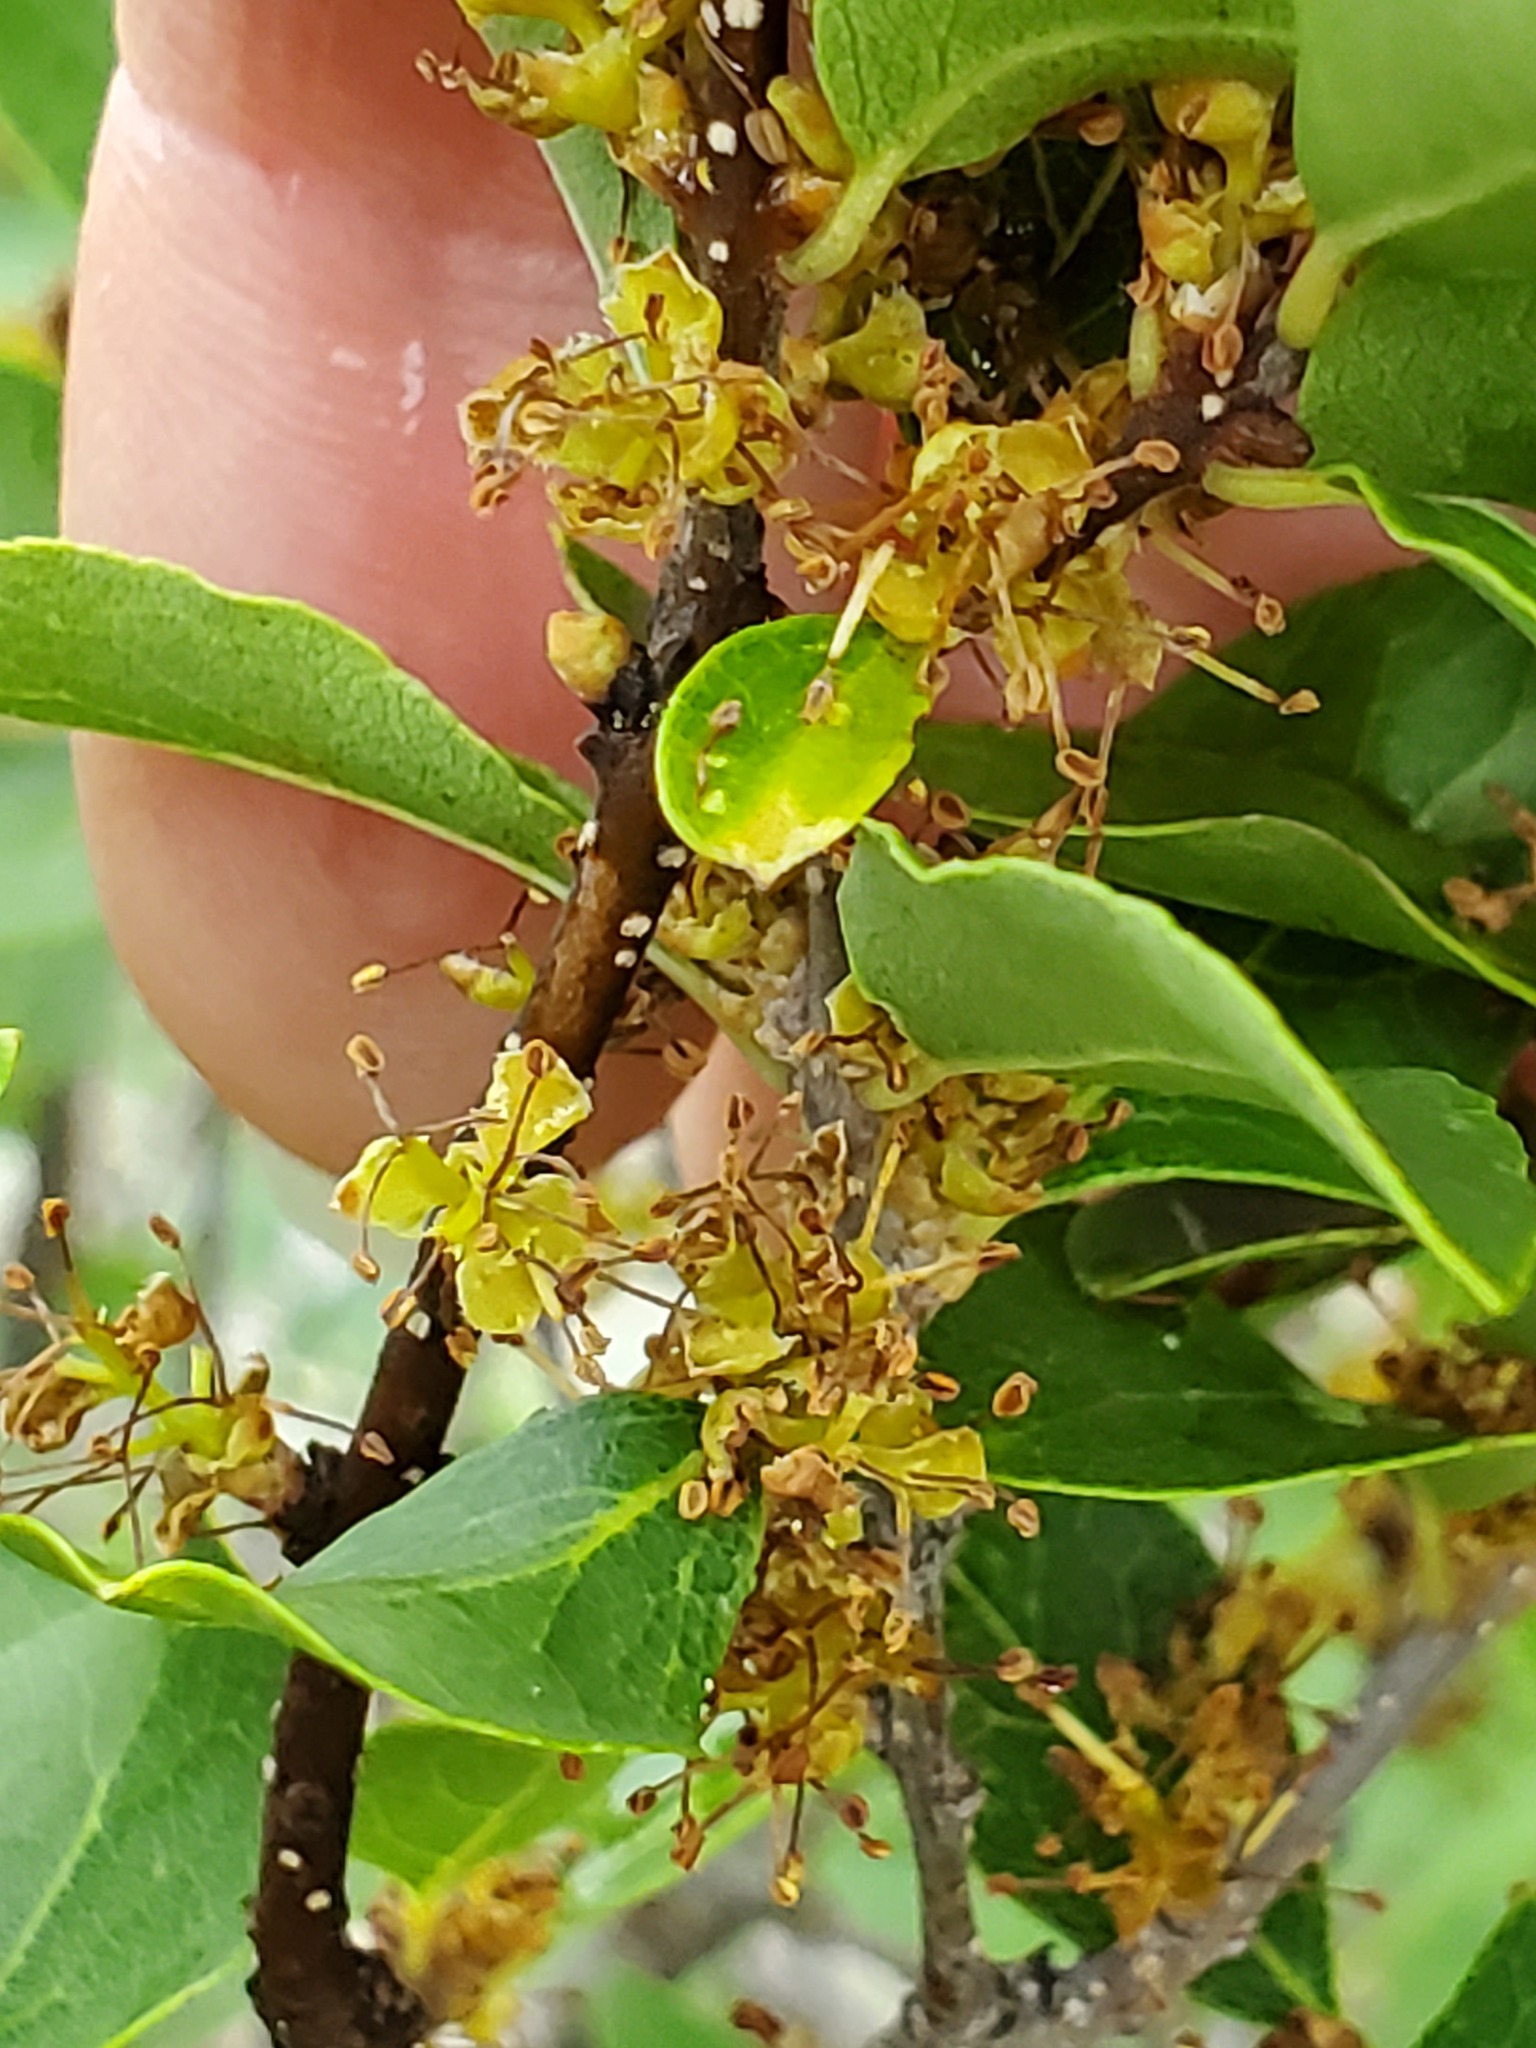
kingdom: Plantae
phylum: Tracheophyta
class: Magnoliopsida
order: Lamiales
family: Oleaceae
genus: Forestiera
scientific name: Forestiera reticulata
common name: Netleaf swamp-privet
